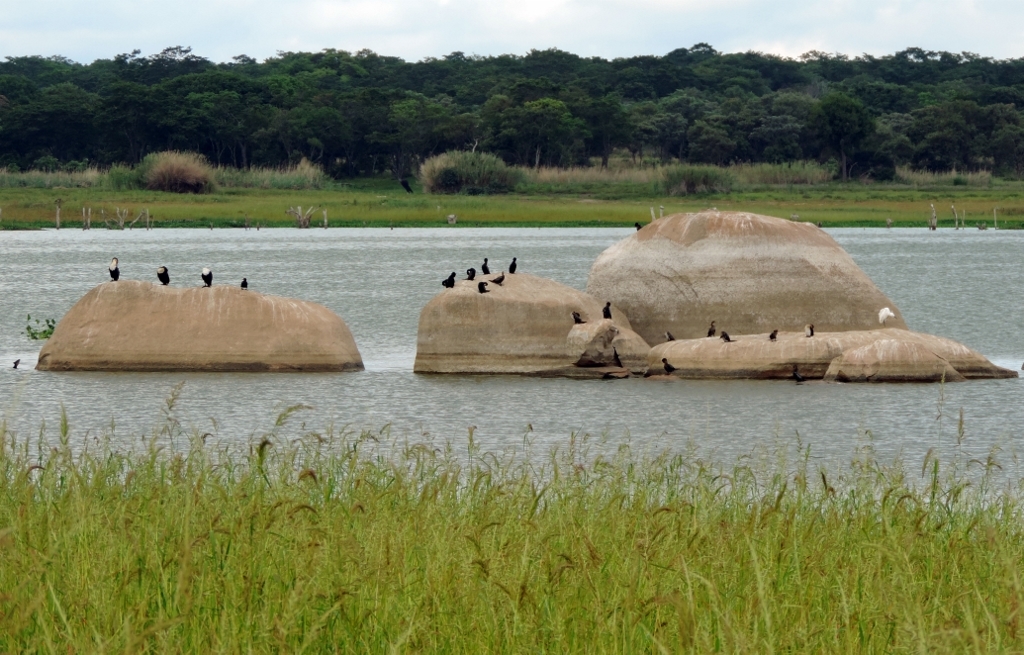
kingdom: Animalia
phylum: Chordata
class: Aves
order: Suliformes
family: Phalacrocoracidae
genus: Microcarbo
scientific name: Microcarbo africanus
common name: Long-tailed cormorant
